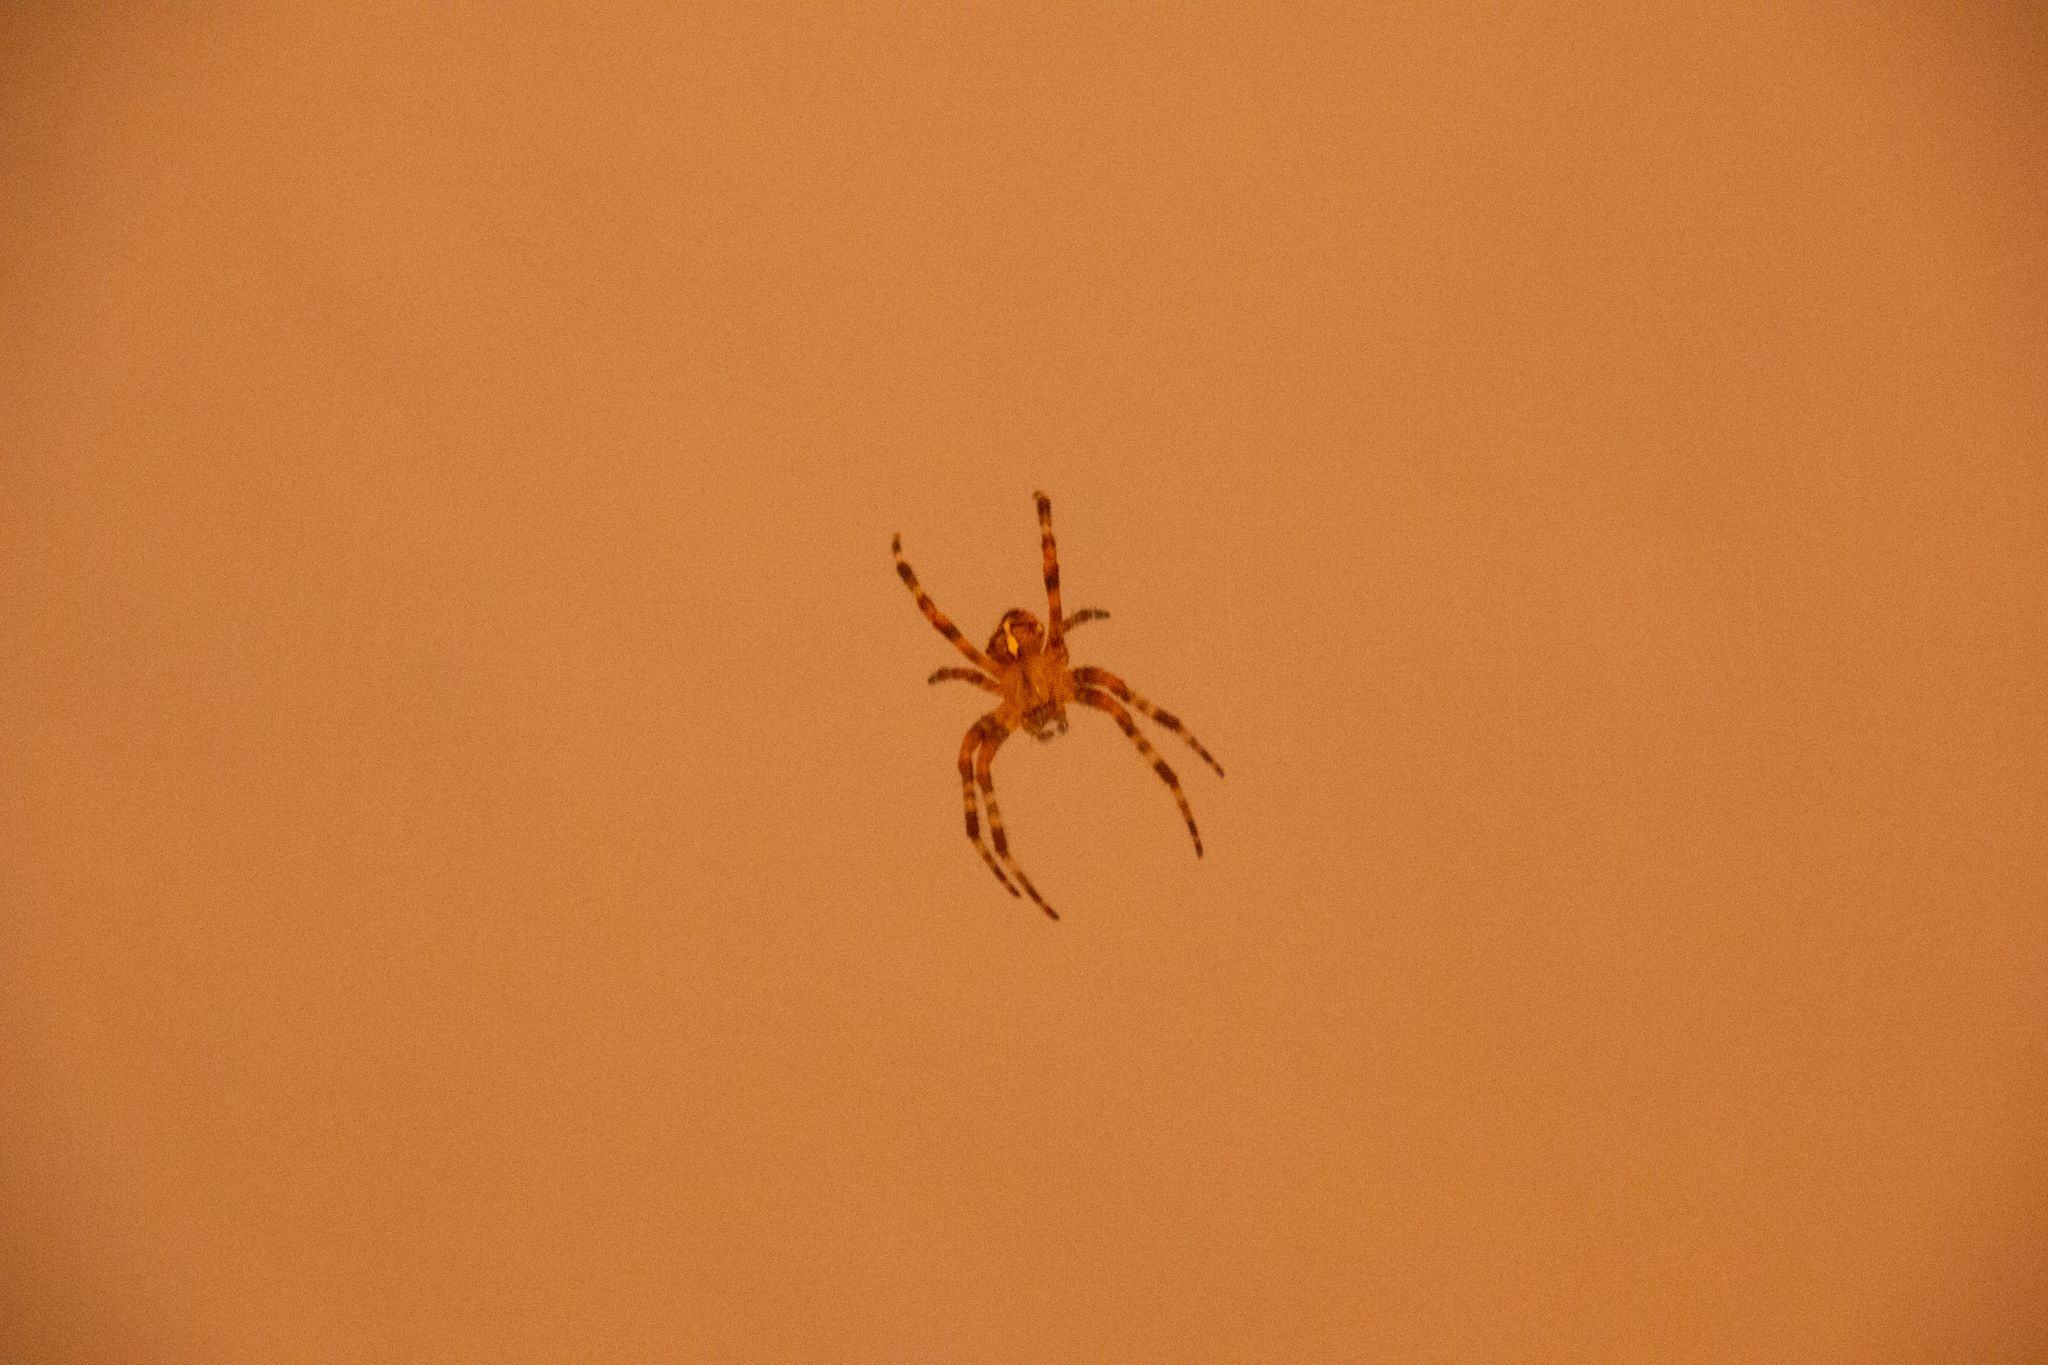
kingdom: Animalia
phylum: Arthropoda
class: Arachnida
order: Araneae
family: Araneidae
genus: Araneus
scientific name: Araneus diadematus
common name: Cross orbweaver
